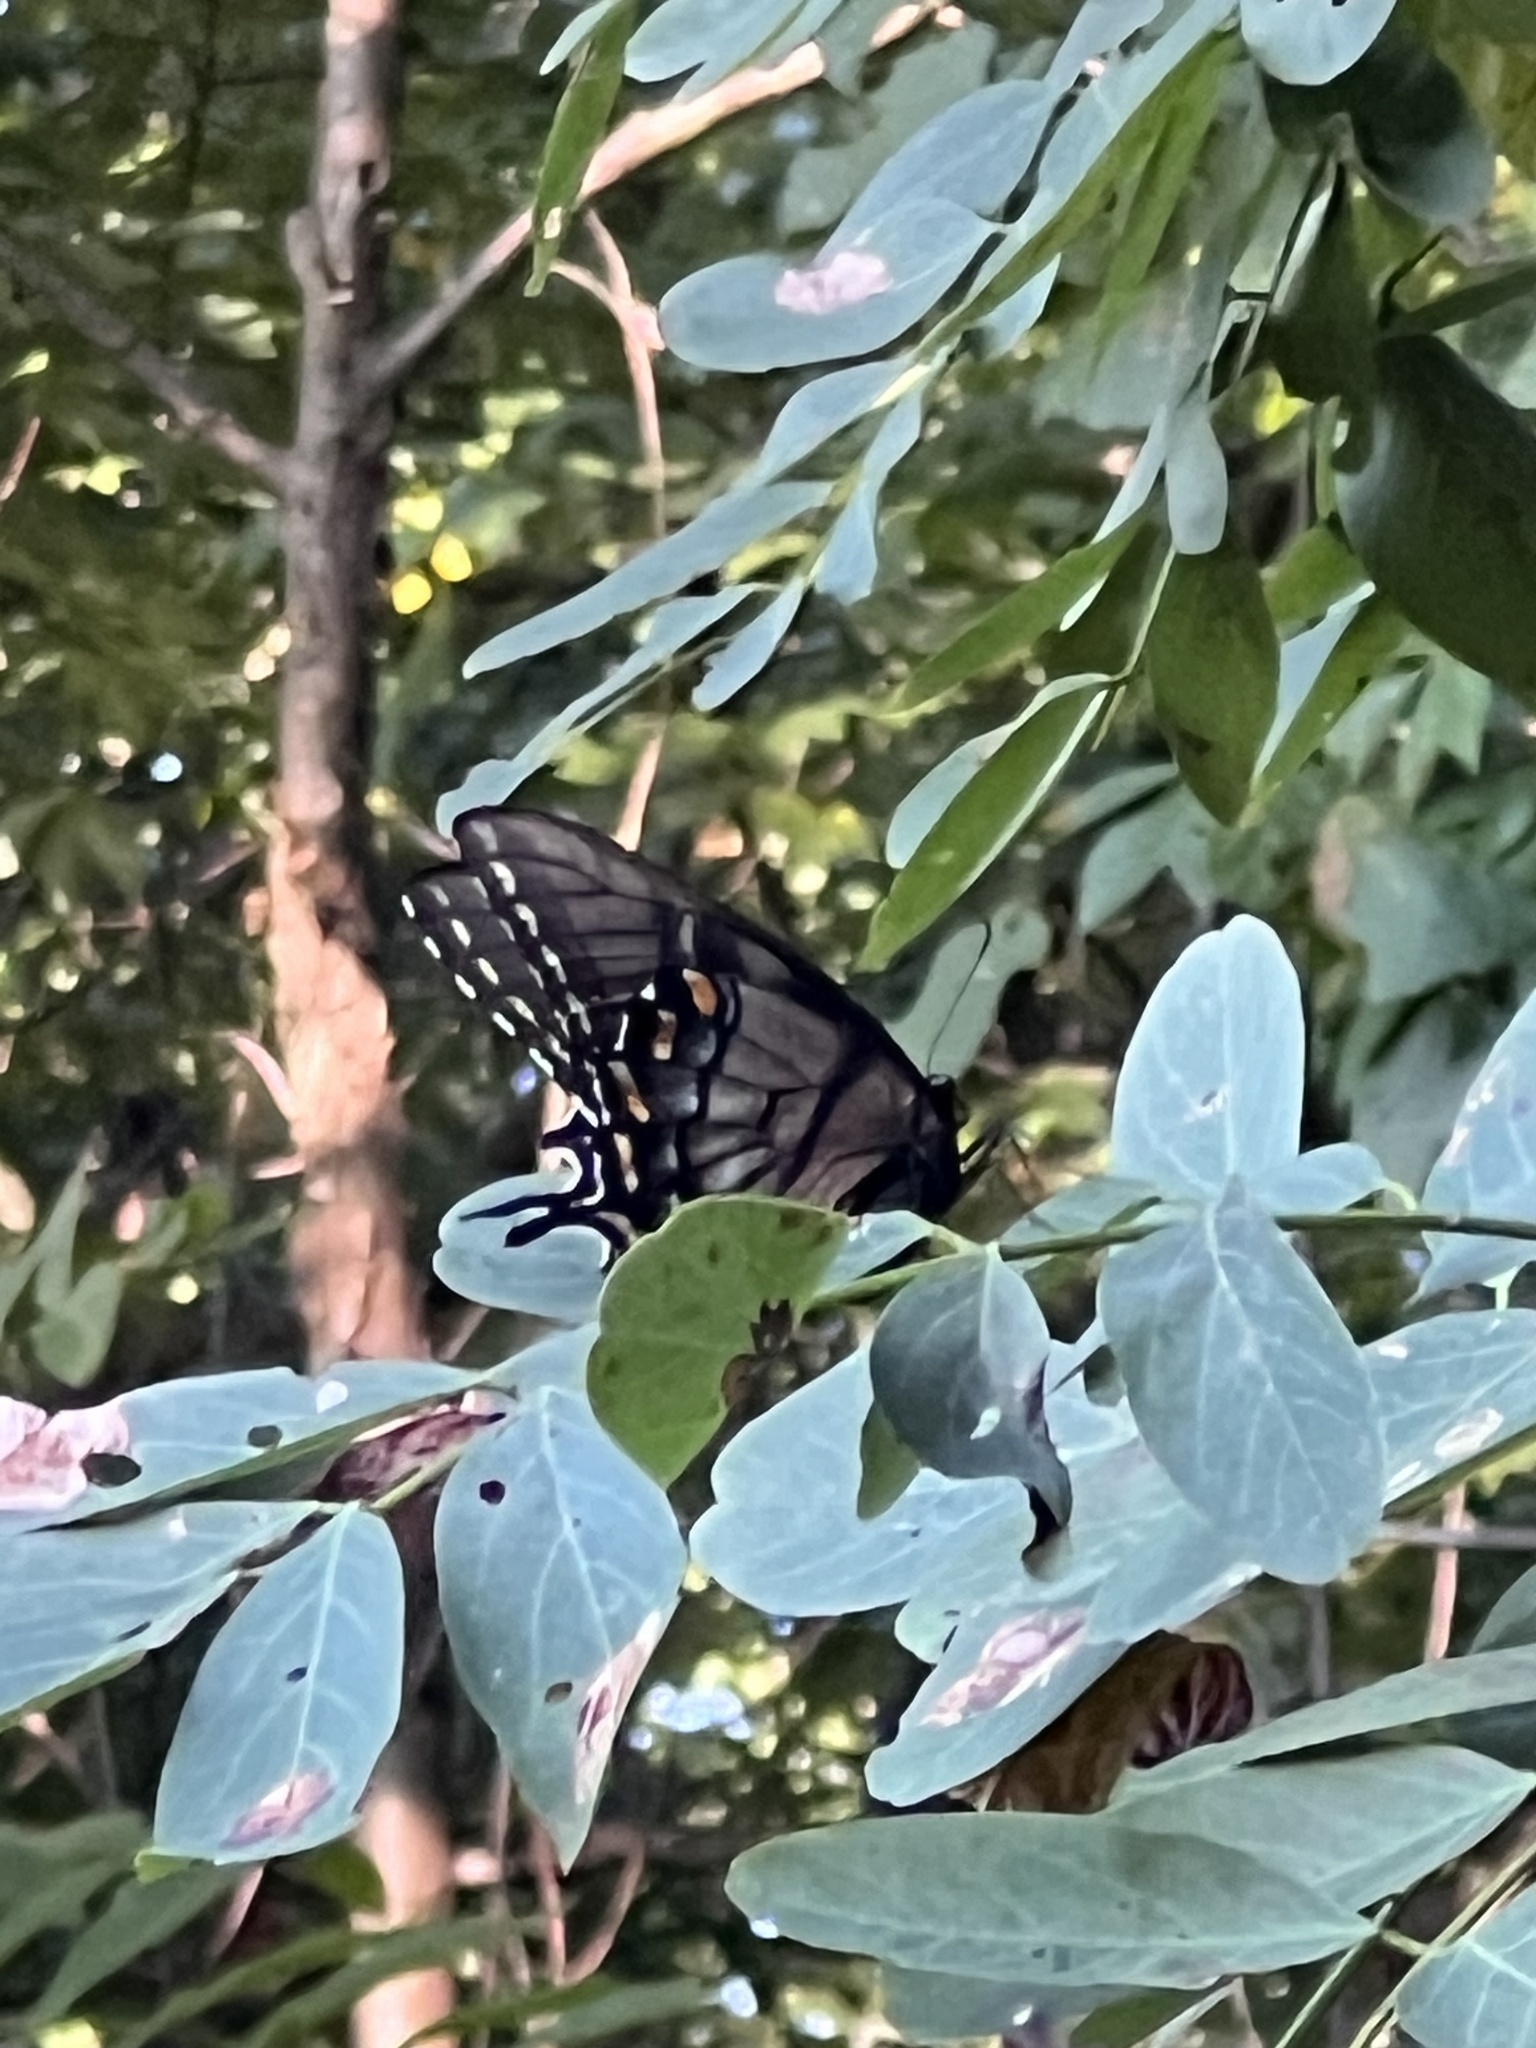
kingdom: Animalia
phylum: Arthropoda
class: Insecta
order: Lepidoptera
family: Papilionidae
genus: Papilio
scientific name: Papilio glaucus
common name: Tiger swallowtail
